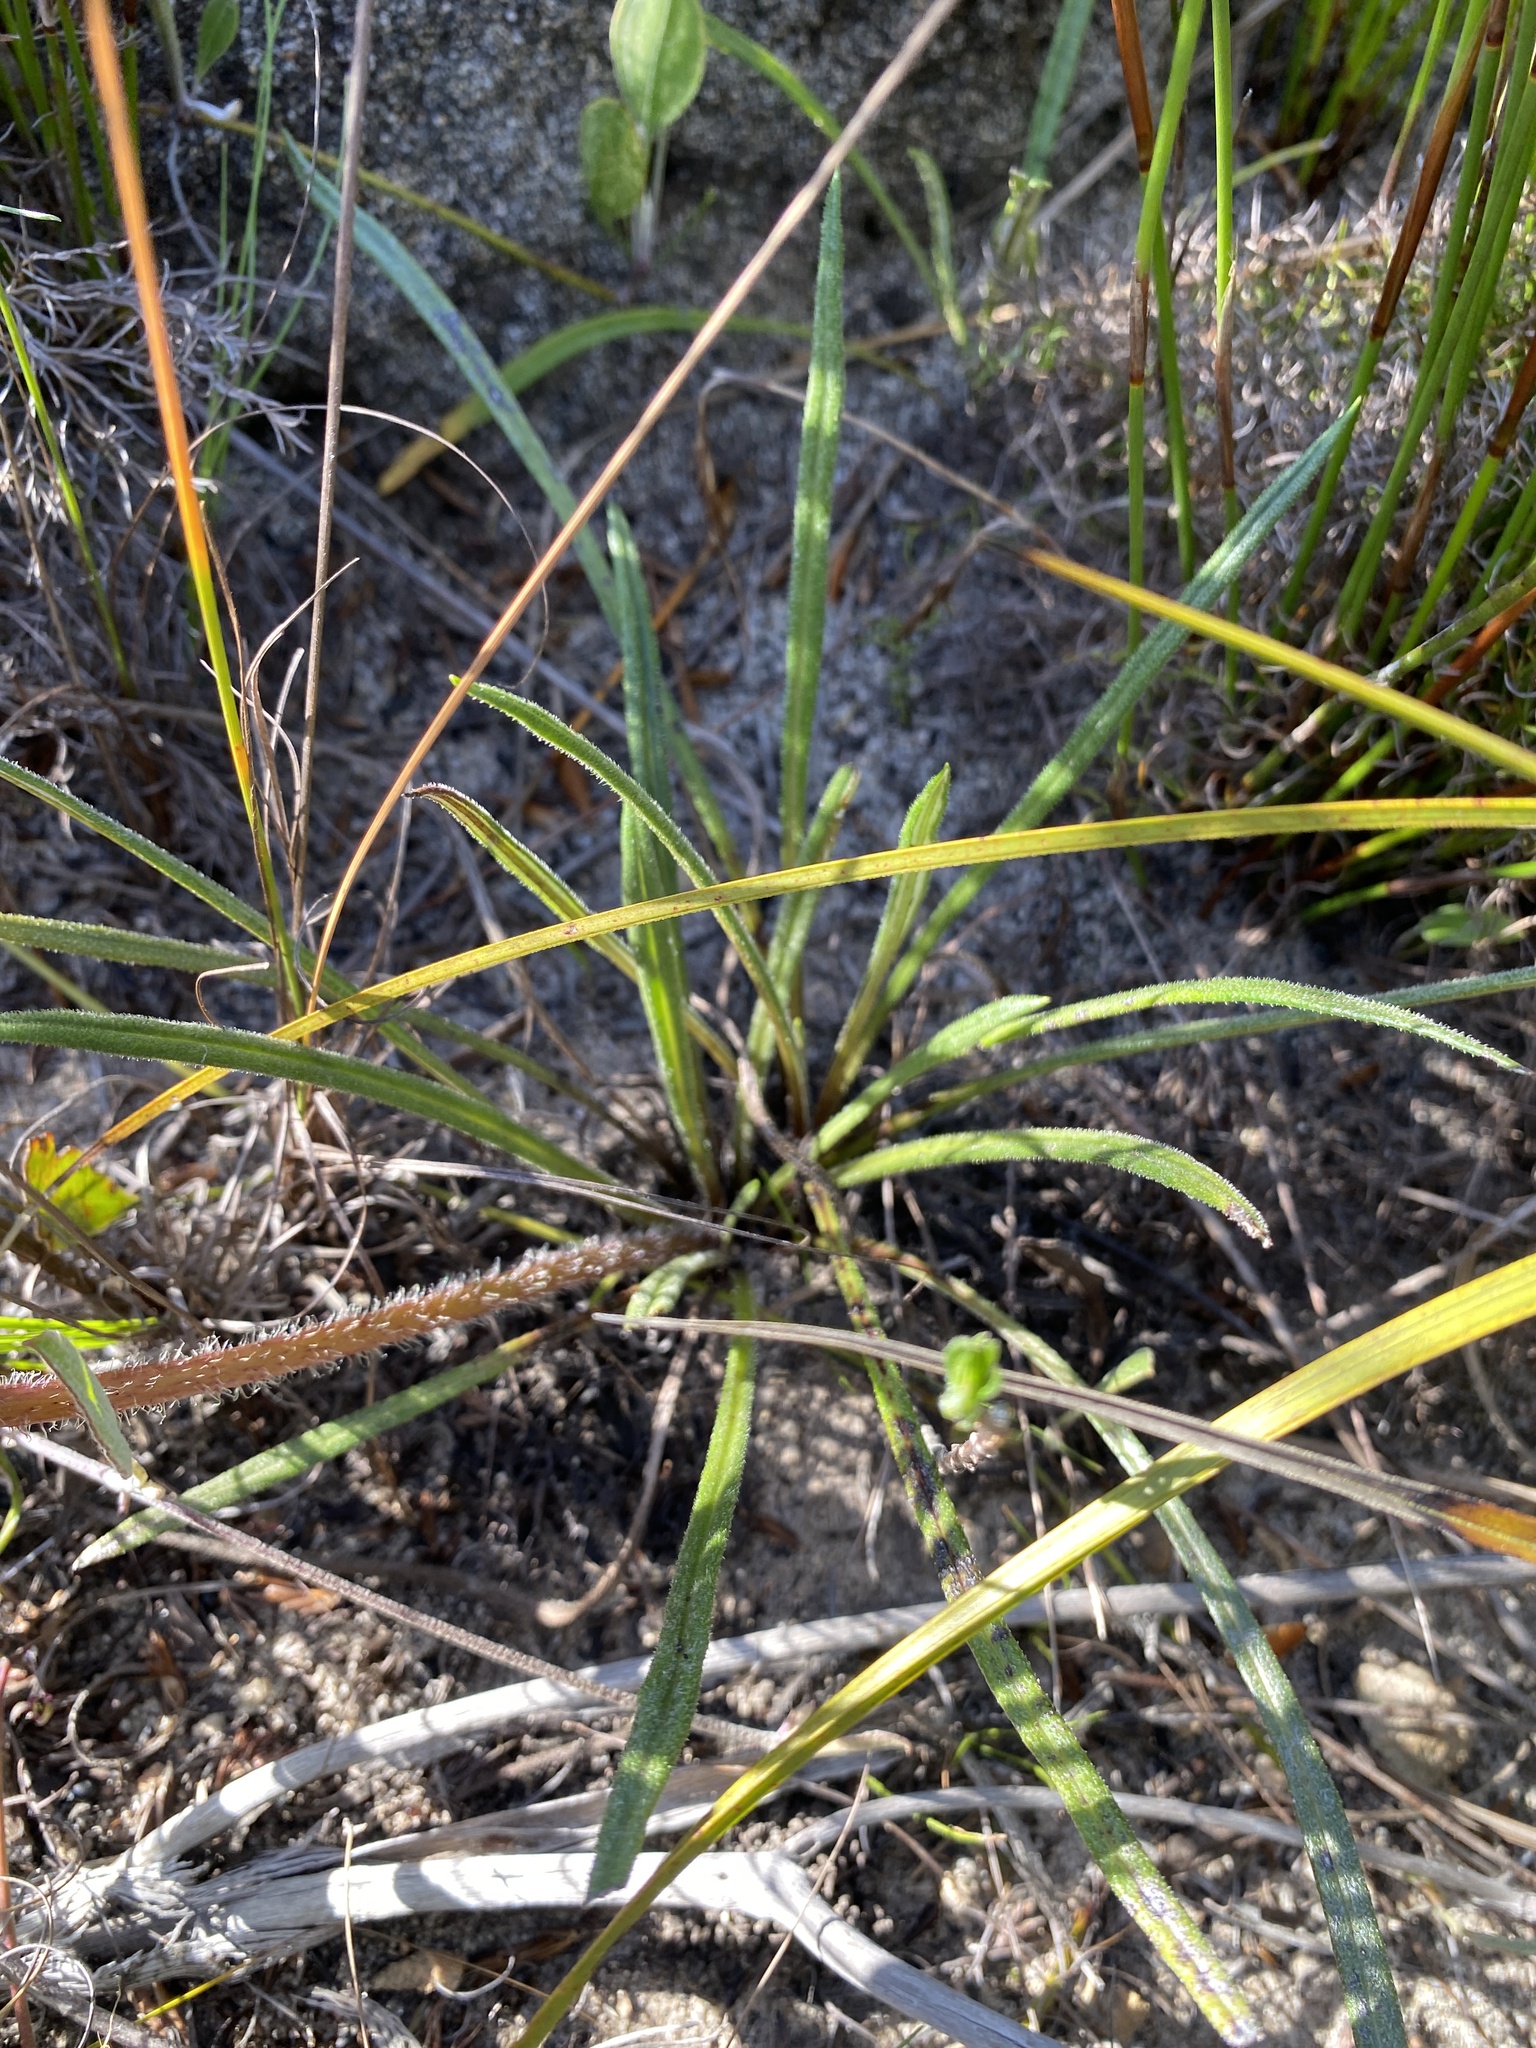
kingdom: Plantae
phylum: Tracheophyta
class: Magnoliopsida
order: Asterales
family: Asteraceae
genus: Gazania
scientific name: Gazania serrata
